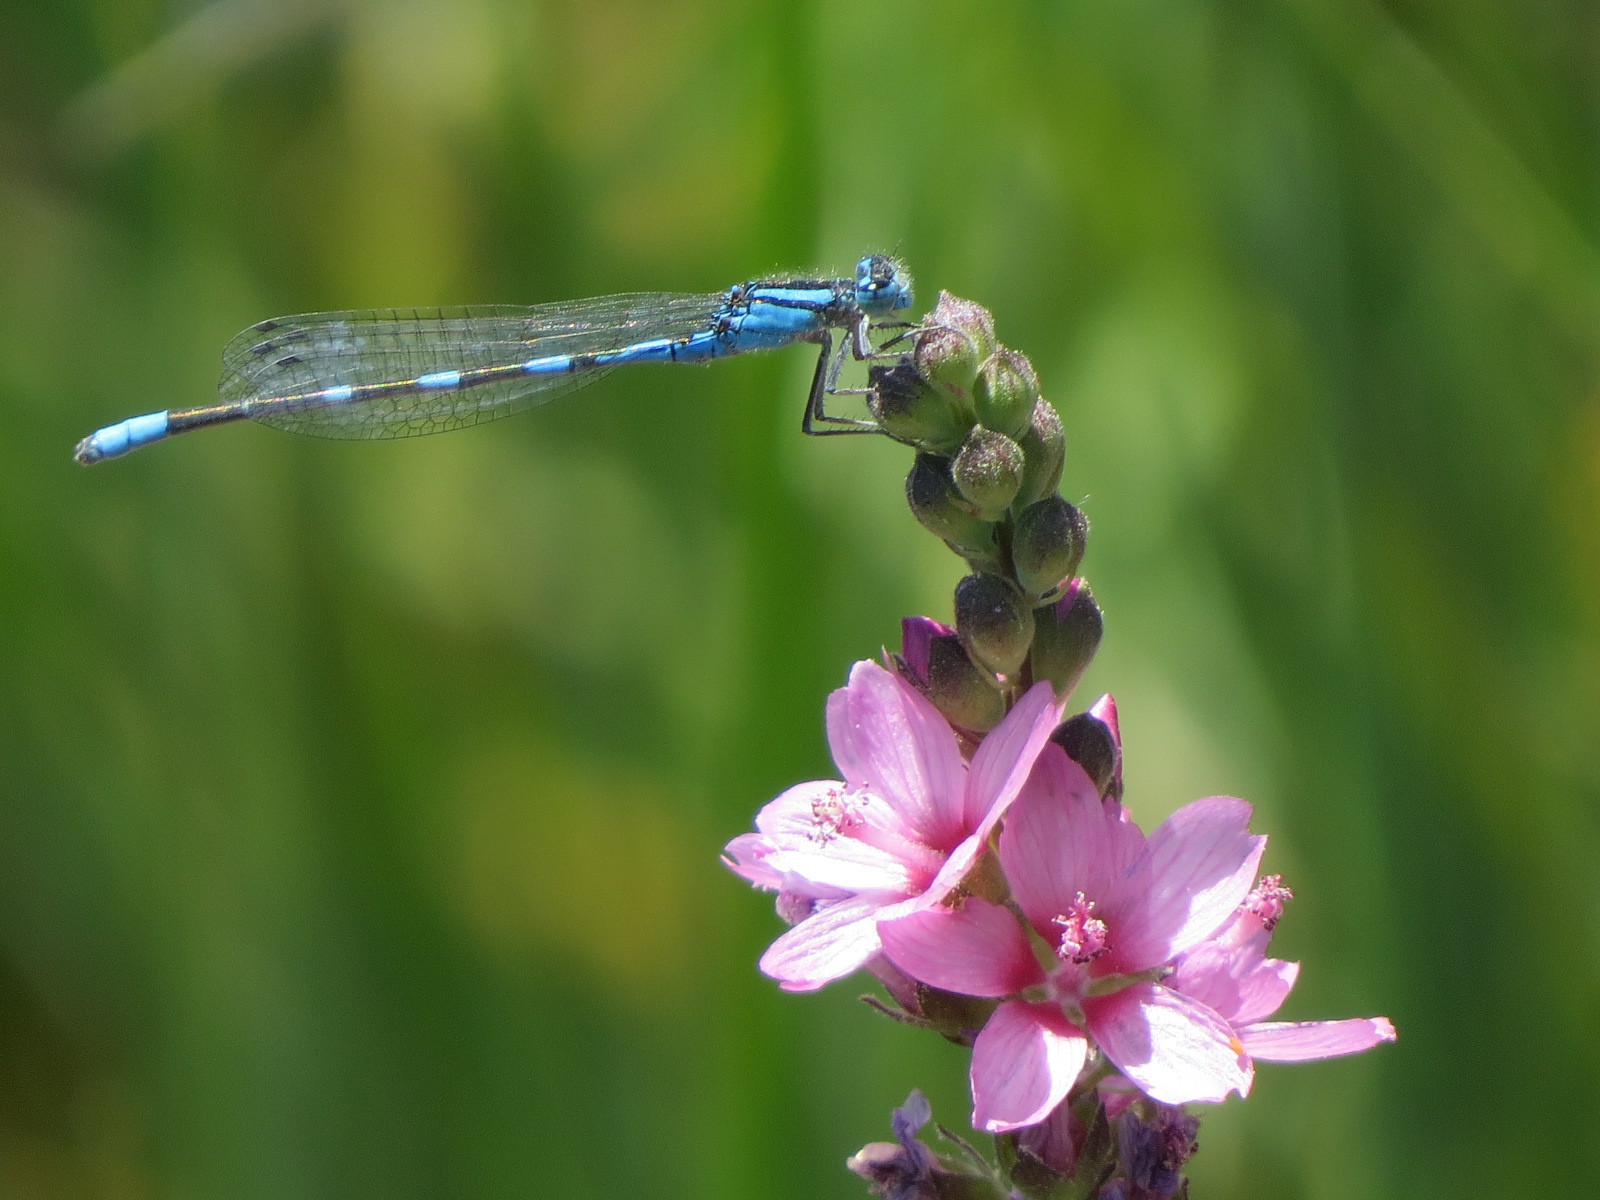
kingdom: Animalia
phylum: Arthropoda
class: Insecta
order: Odonata
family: Coenagrionidae
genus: Enallagma
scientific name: Enallagma carunculatum
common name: Tule bluet
